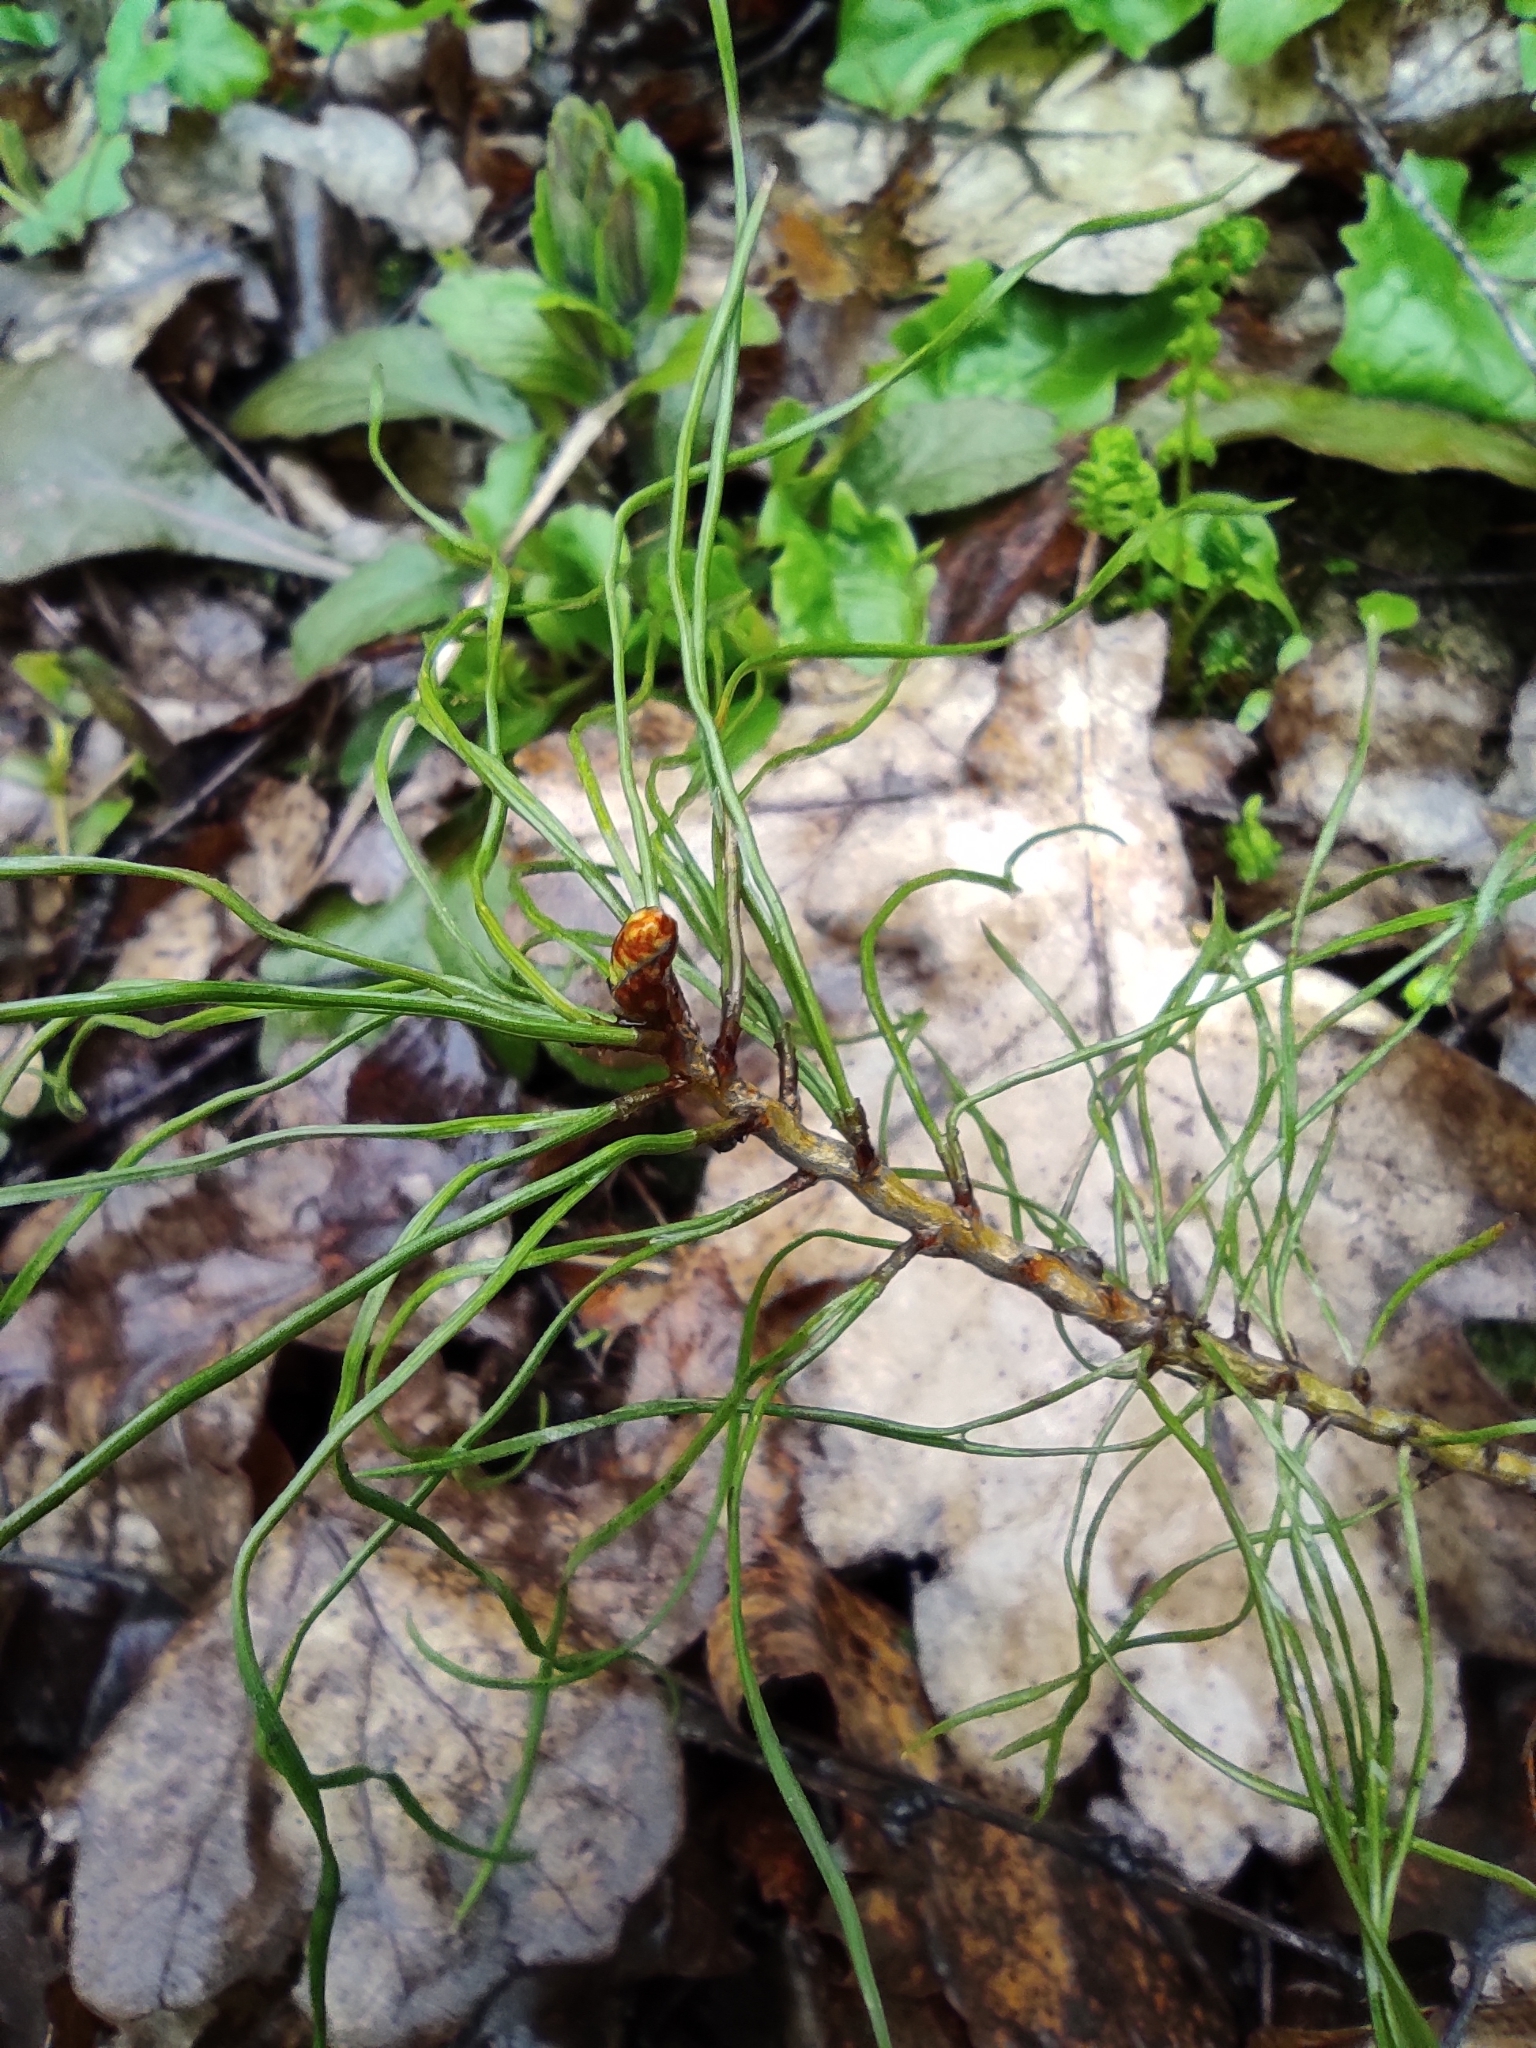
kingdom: Plantae
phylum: Tracheophyta
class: Pinopsida
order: Pinales
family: Pinaceae
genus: Pinus
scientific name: Pinus sylvestris
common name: Scots pine
